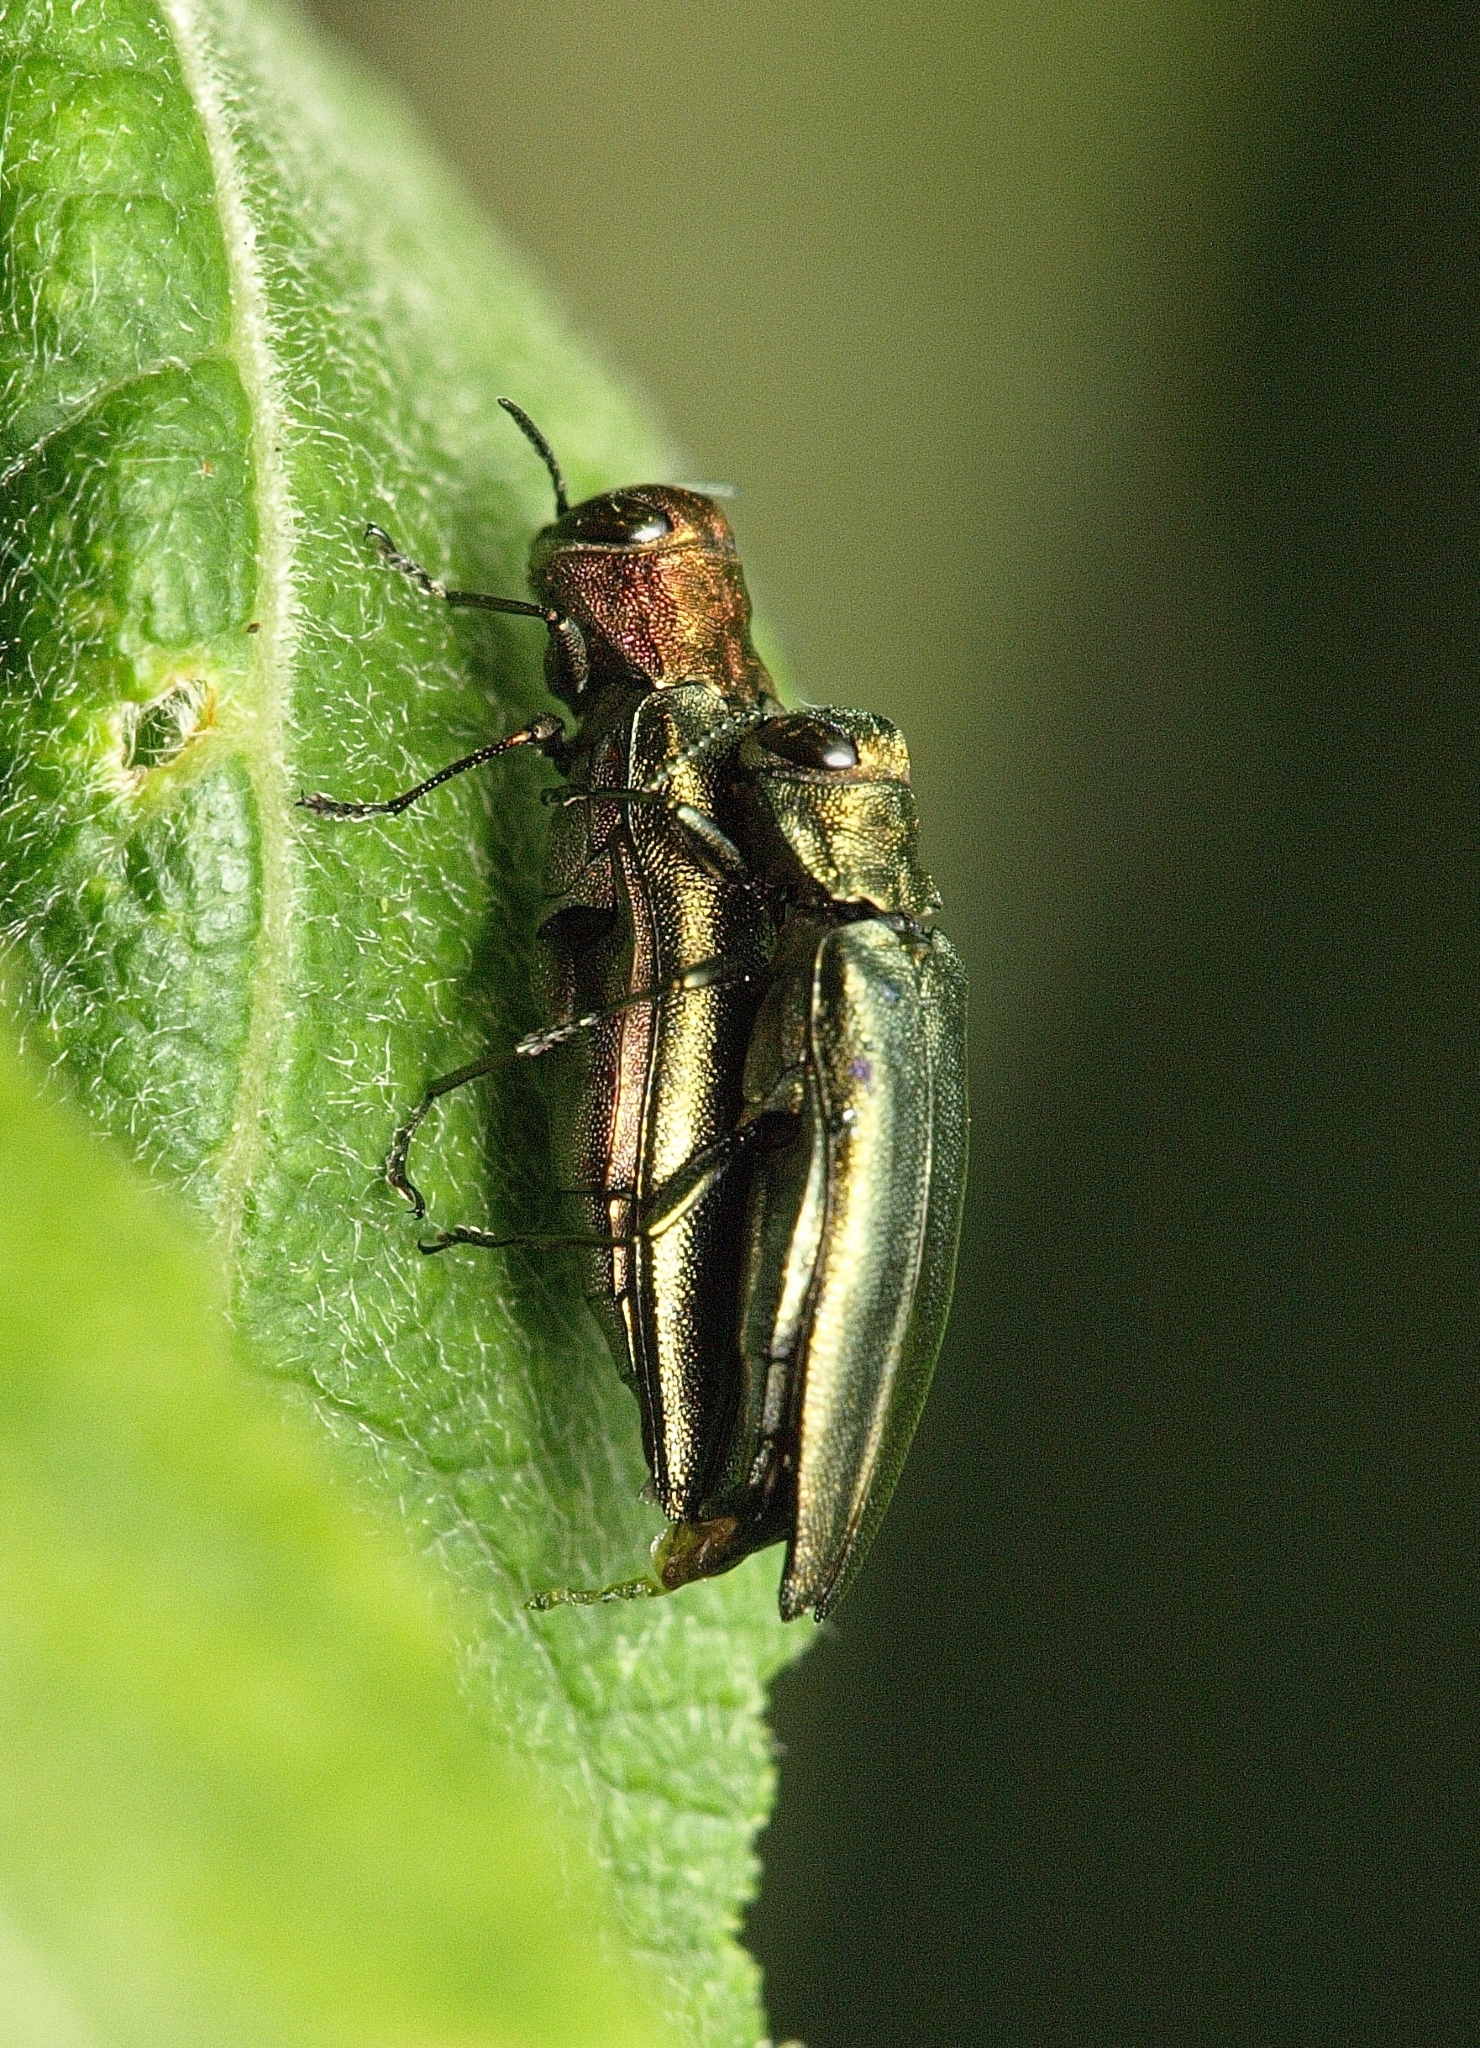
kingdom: Animalia
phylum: Arthropoda
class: Insecta
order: Coleoptera
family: Buprestidae
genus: Agrilus
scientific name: Agrilus viridis
